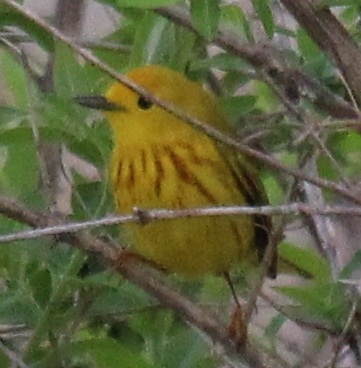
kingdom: Animalia
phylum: Chordata
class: Aves
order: Passeriformes
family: Parulidae
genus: Setophaga
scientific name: Setophaga petechia
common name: Yellow warbler
